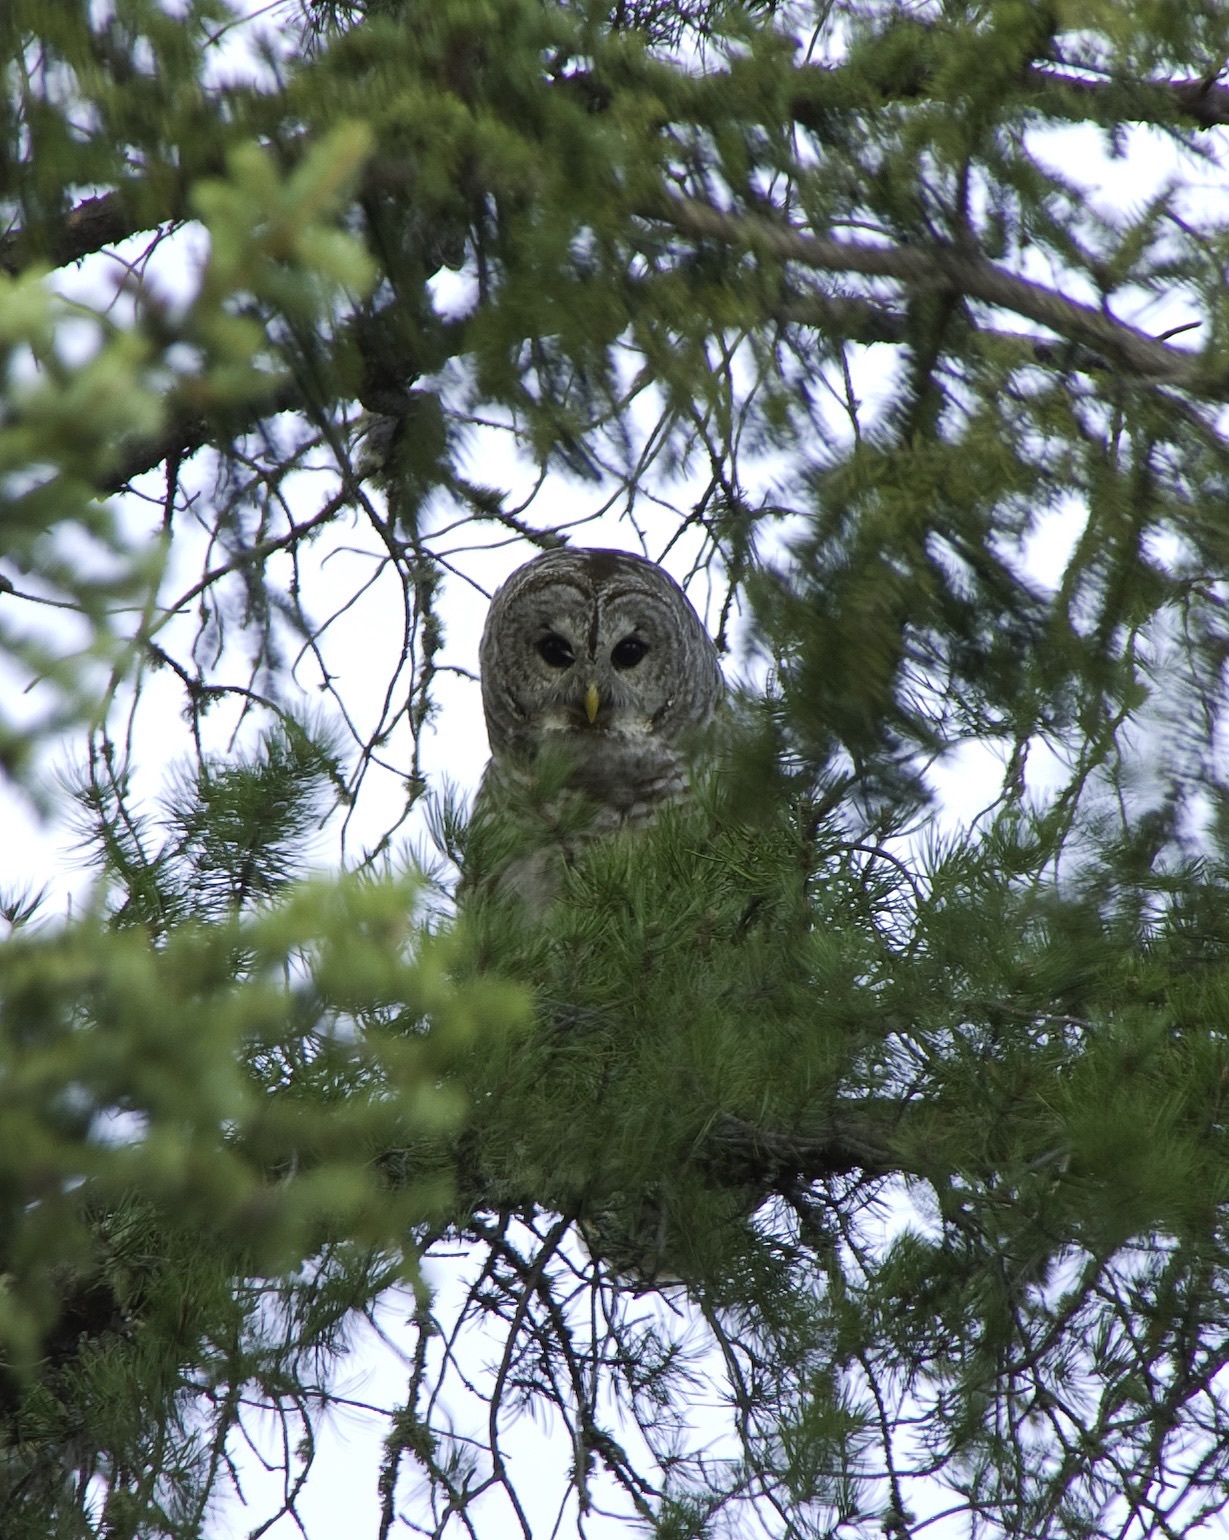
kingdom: Animalia
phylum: Chordata
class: Aves
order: Strigiformes
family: Strigidae
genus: Strix
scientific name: Strix varia
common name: Barred owl
